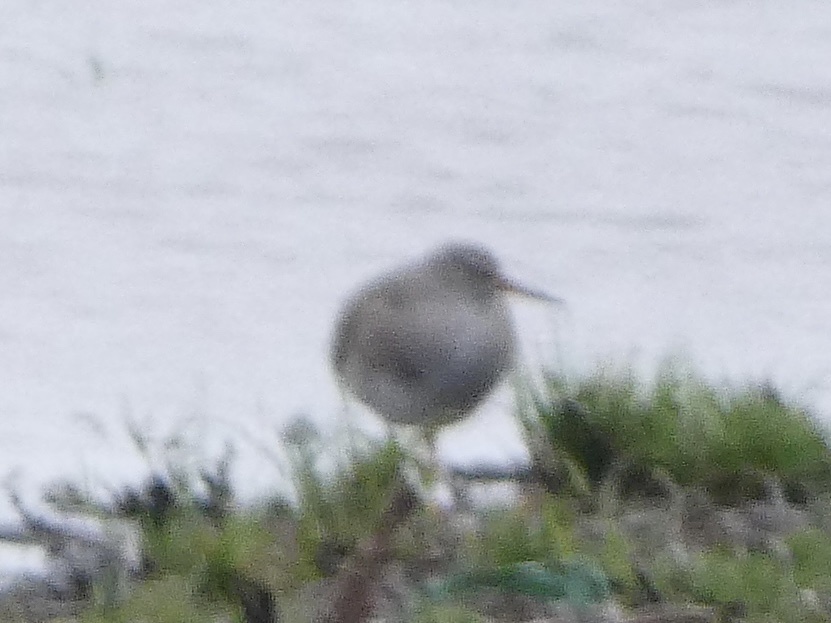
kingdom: Animalia
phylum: Chordata
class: Aves
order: Charadriiformes
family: Scolopacidae
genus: Tringa
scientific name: Tringa totanus
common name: Common redshank
